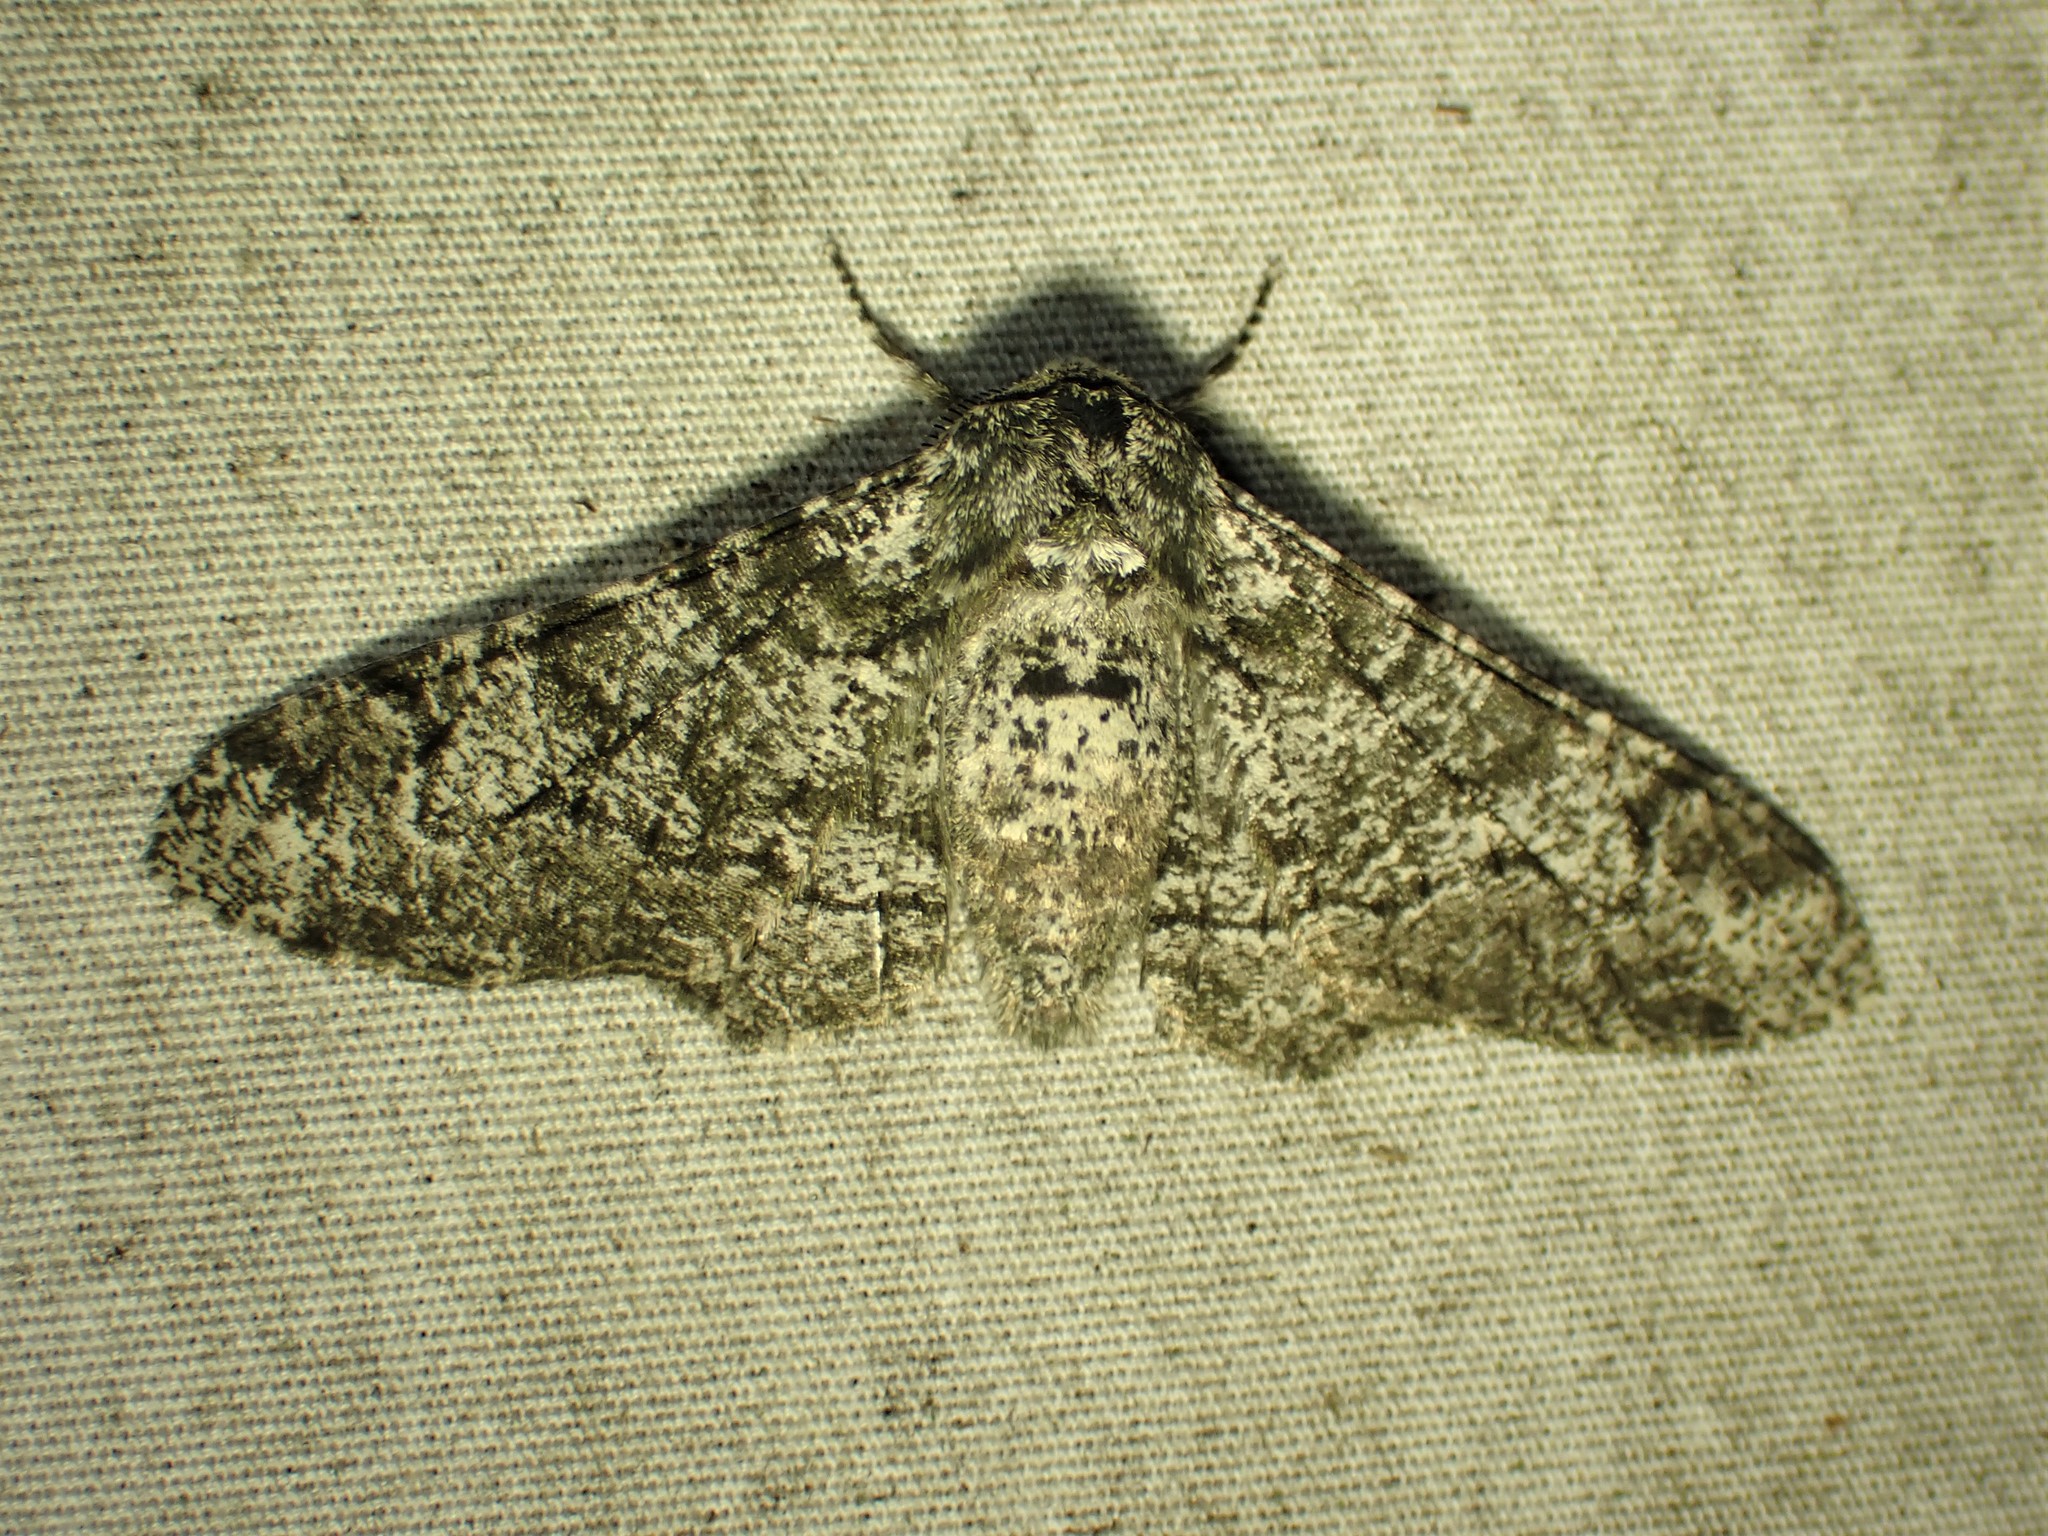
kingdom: Animalia
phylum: Arthropoda
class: Insecta
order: Lepidoptera
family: Geometridae
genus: Biston
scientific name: Biston betularia
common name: Peppered moth
